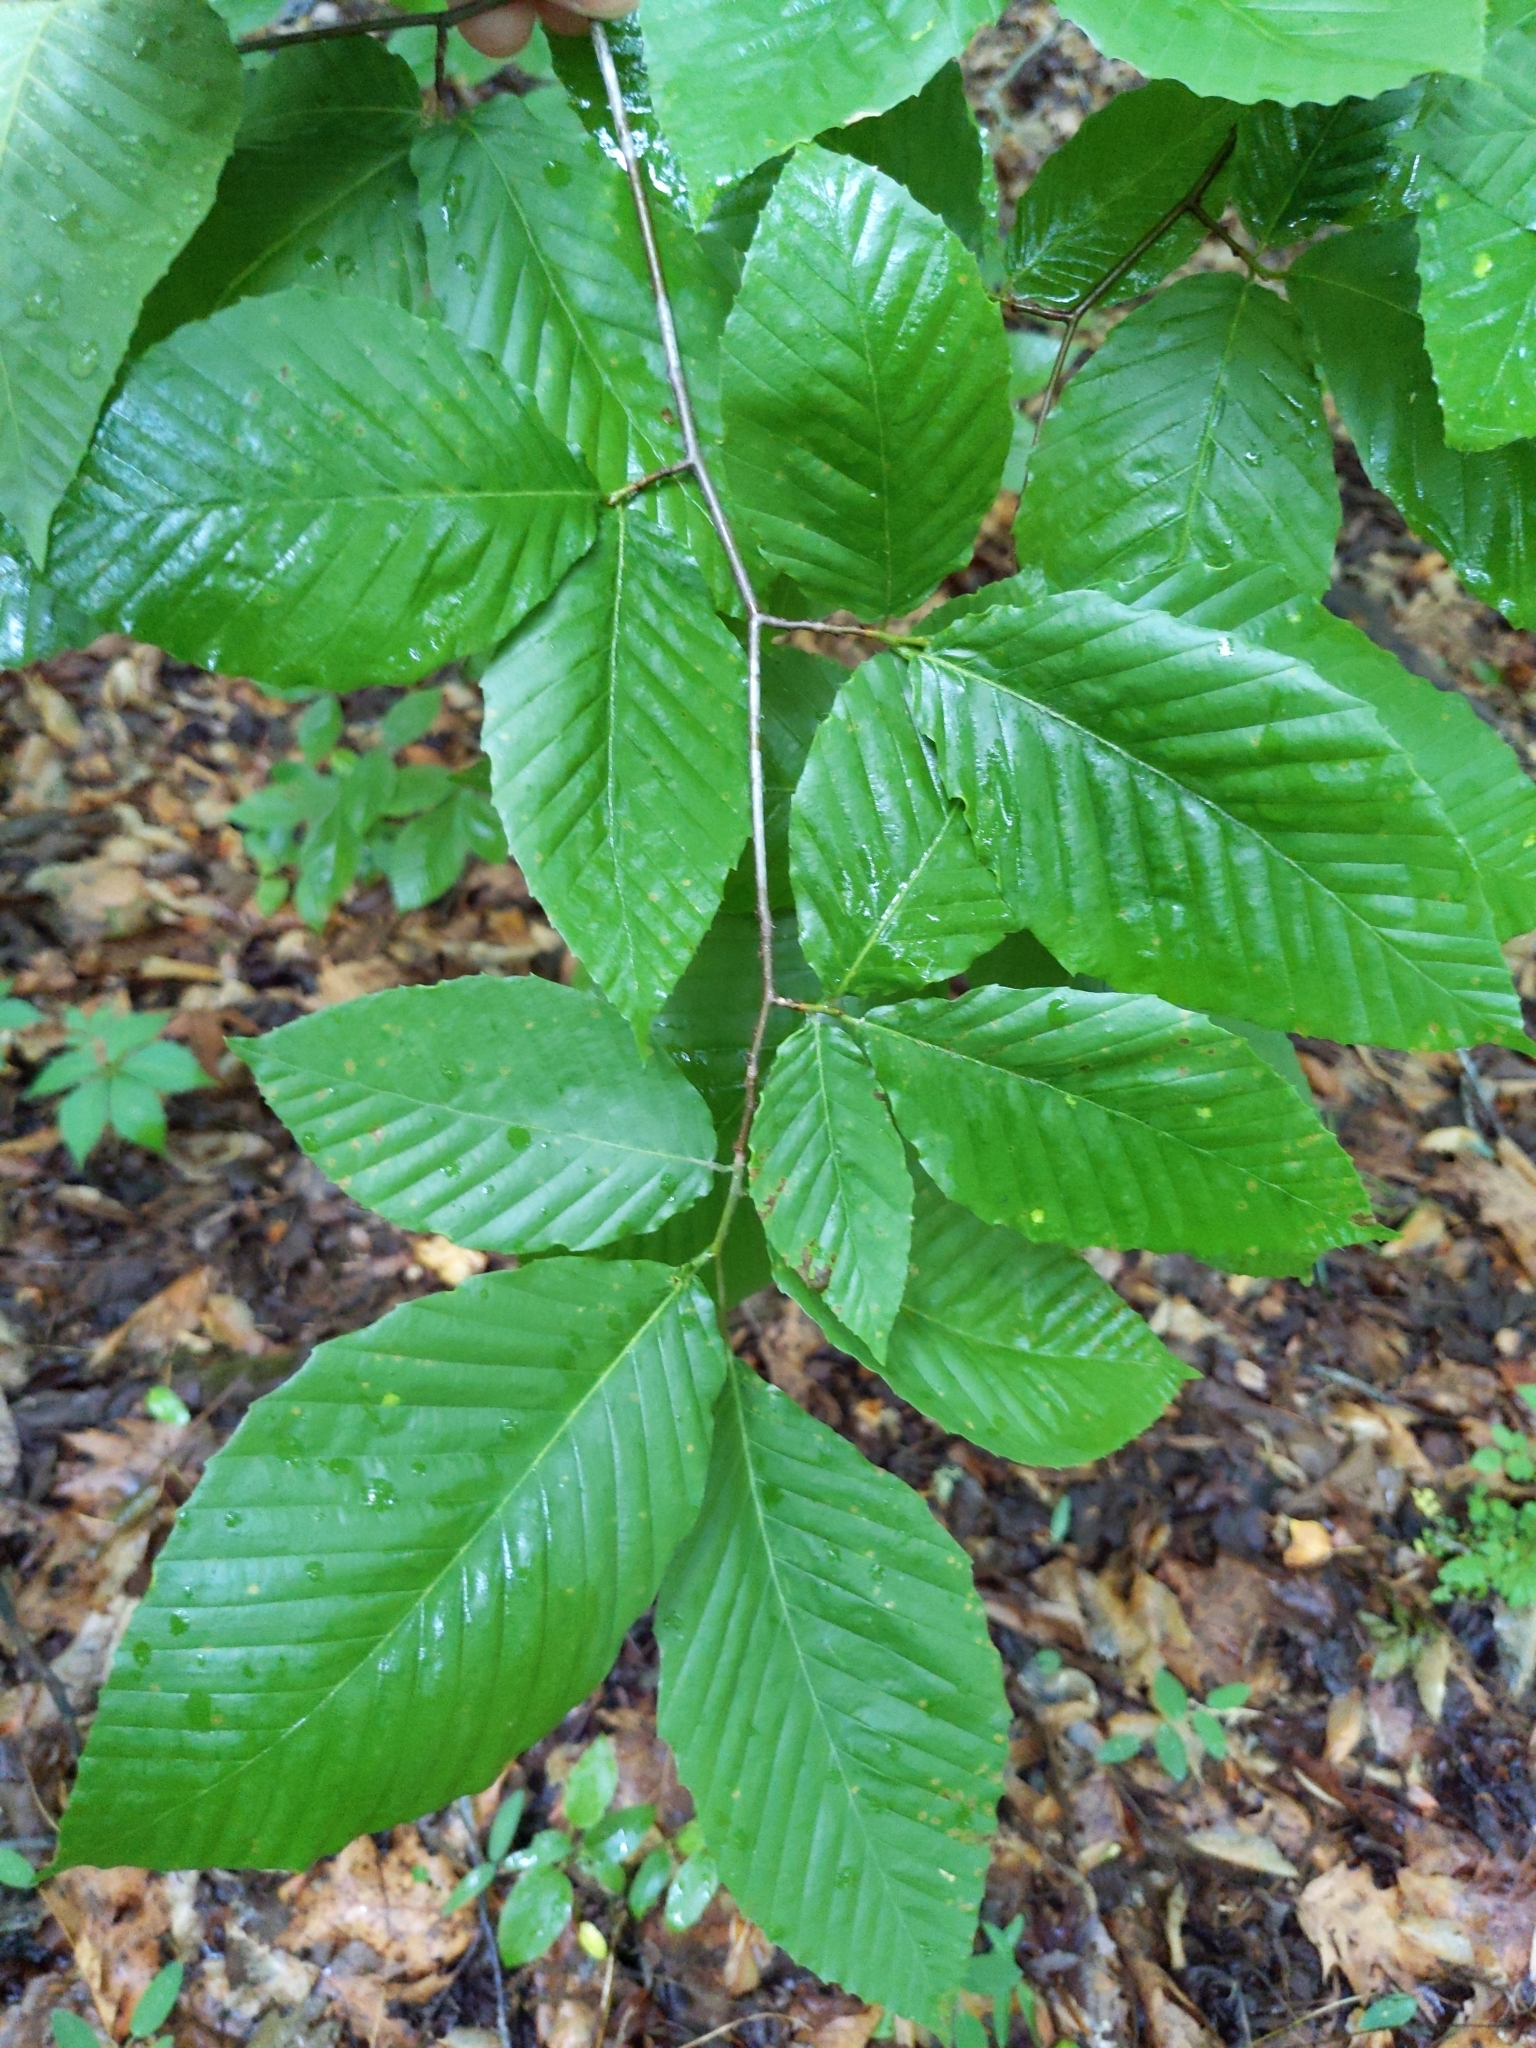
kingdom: Plantae
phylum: Tracheophyta
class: Magnoliopsida
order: Fagales
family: Fagaceae
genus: Fagus
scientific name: Fagus grandifolia
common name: American beech
